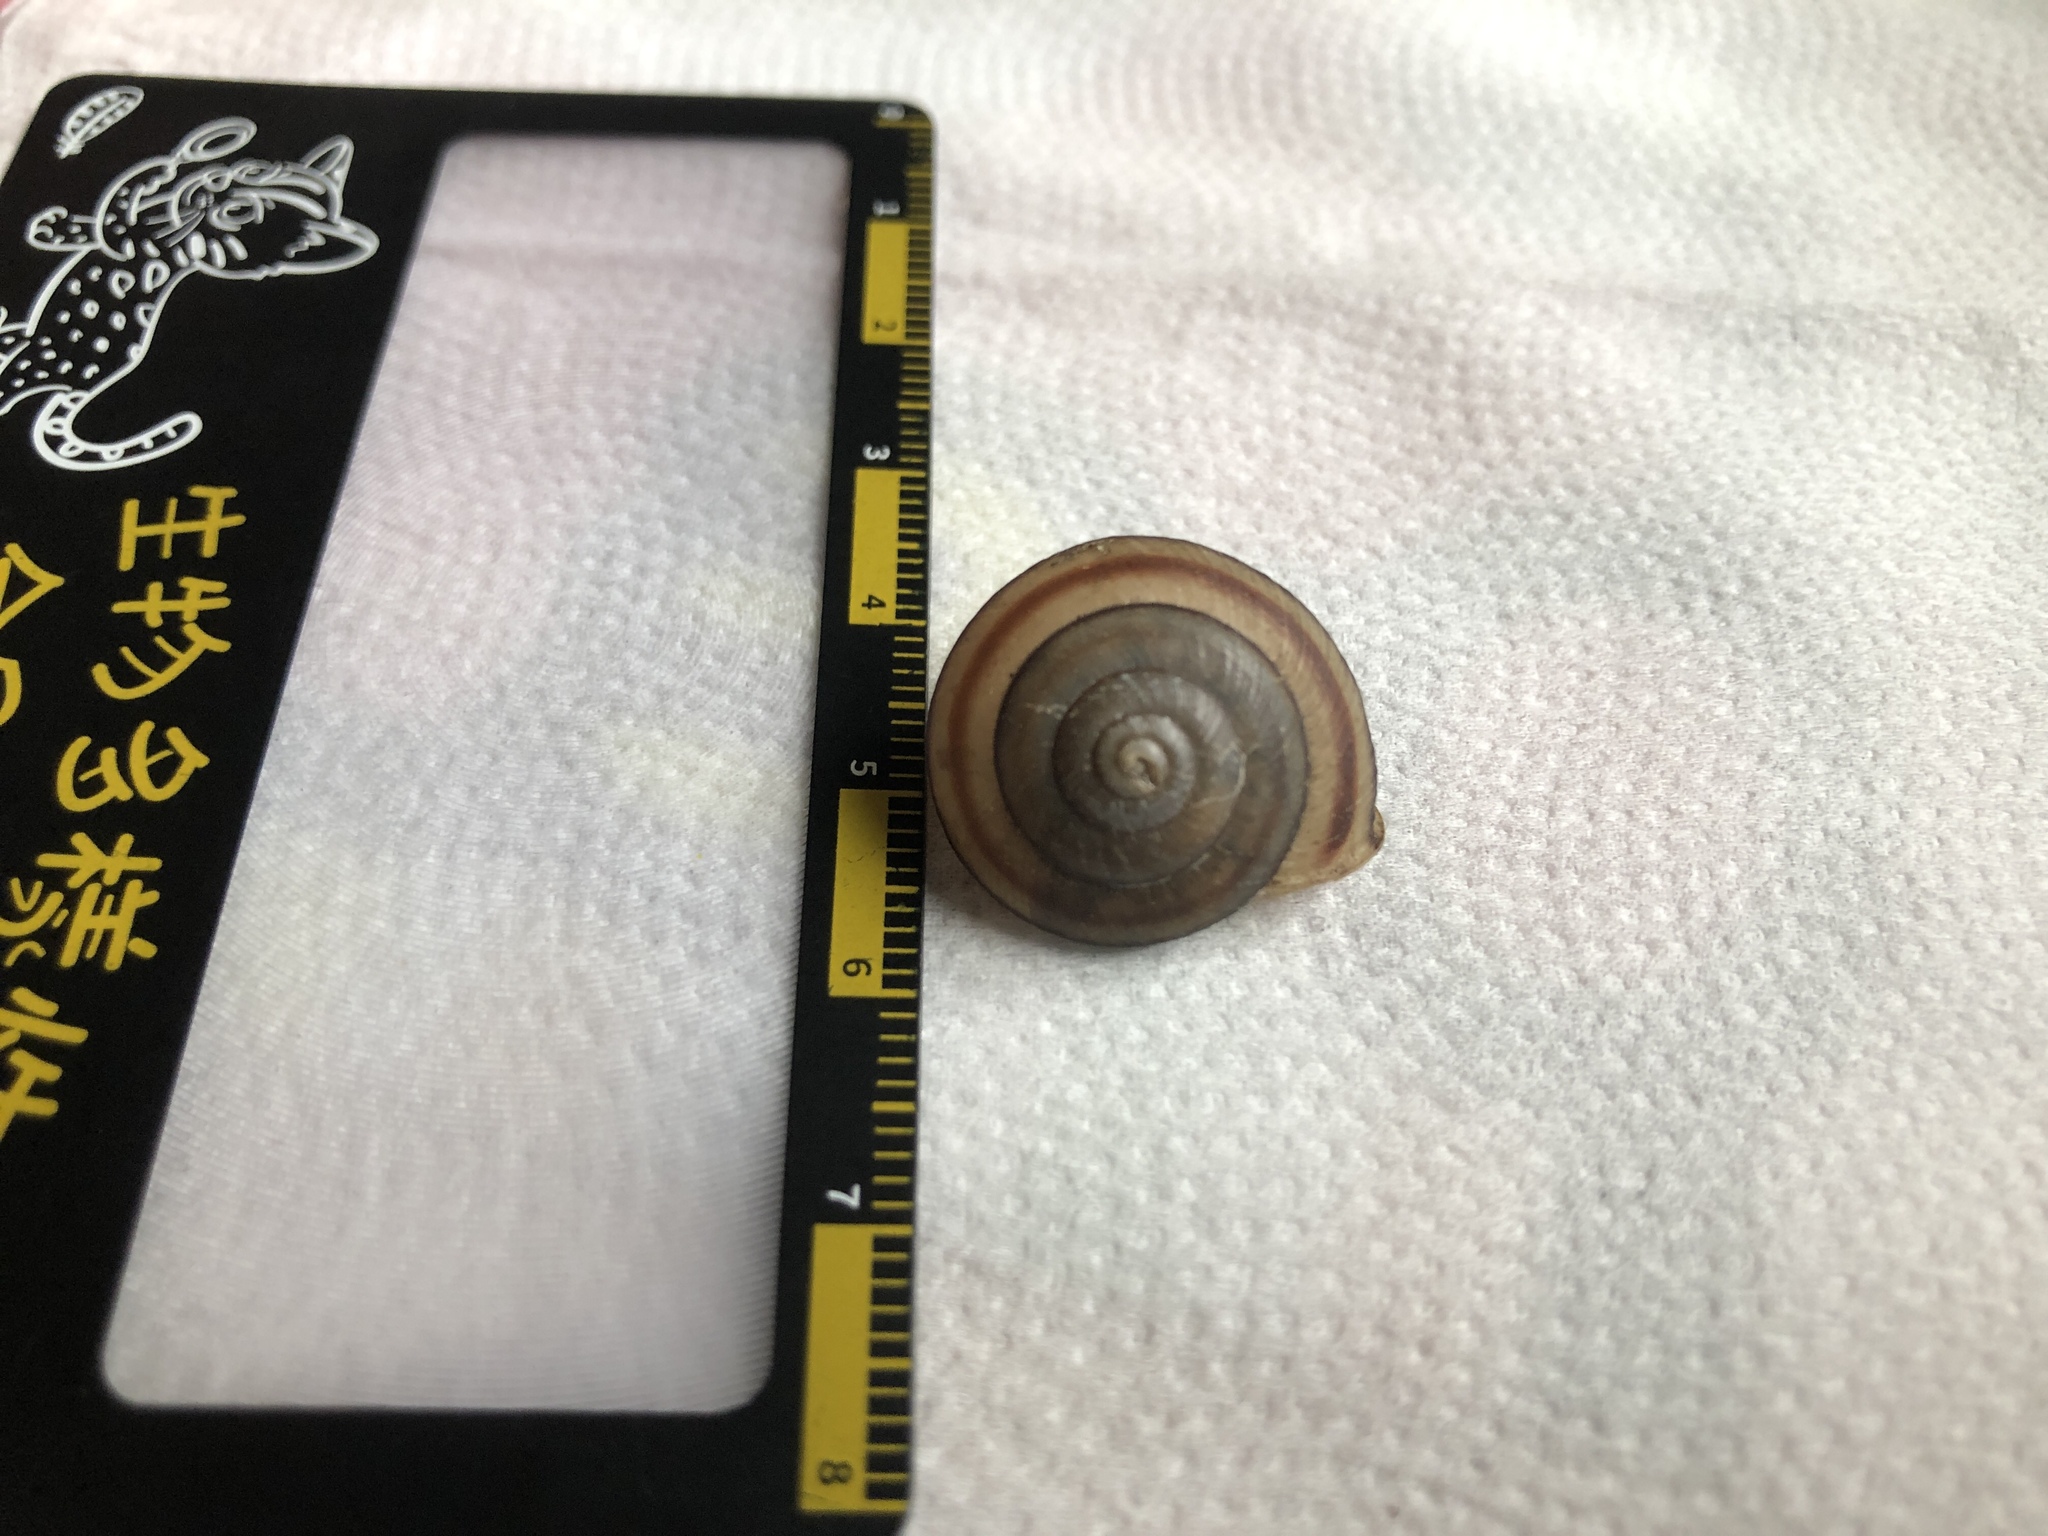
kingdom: Animalia
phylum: Mollusca
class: Gastropoda
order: Stylommatophora
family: Camaenidae
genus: Satsuma
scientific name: Satsuma succincta
